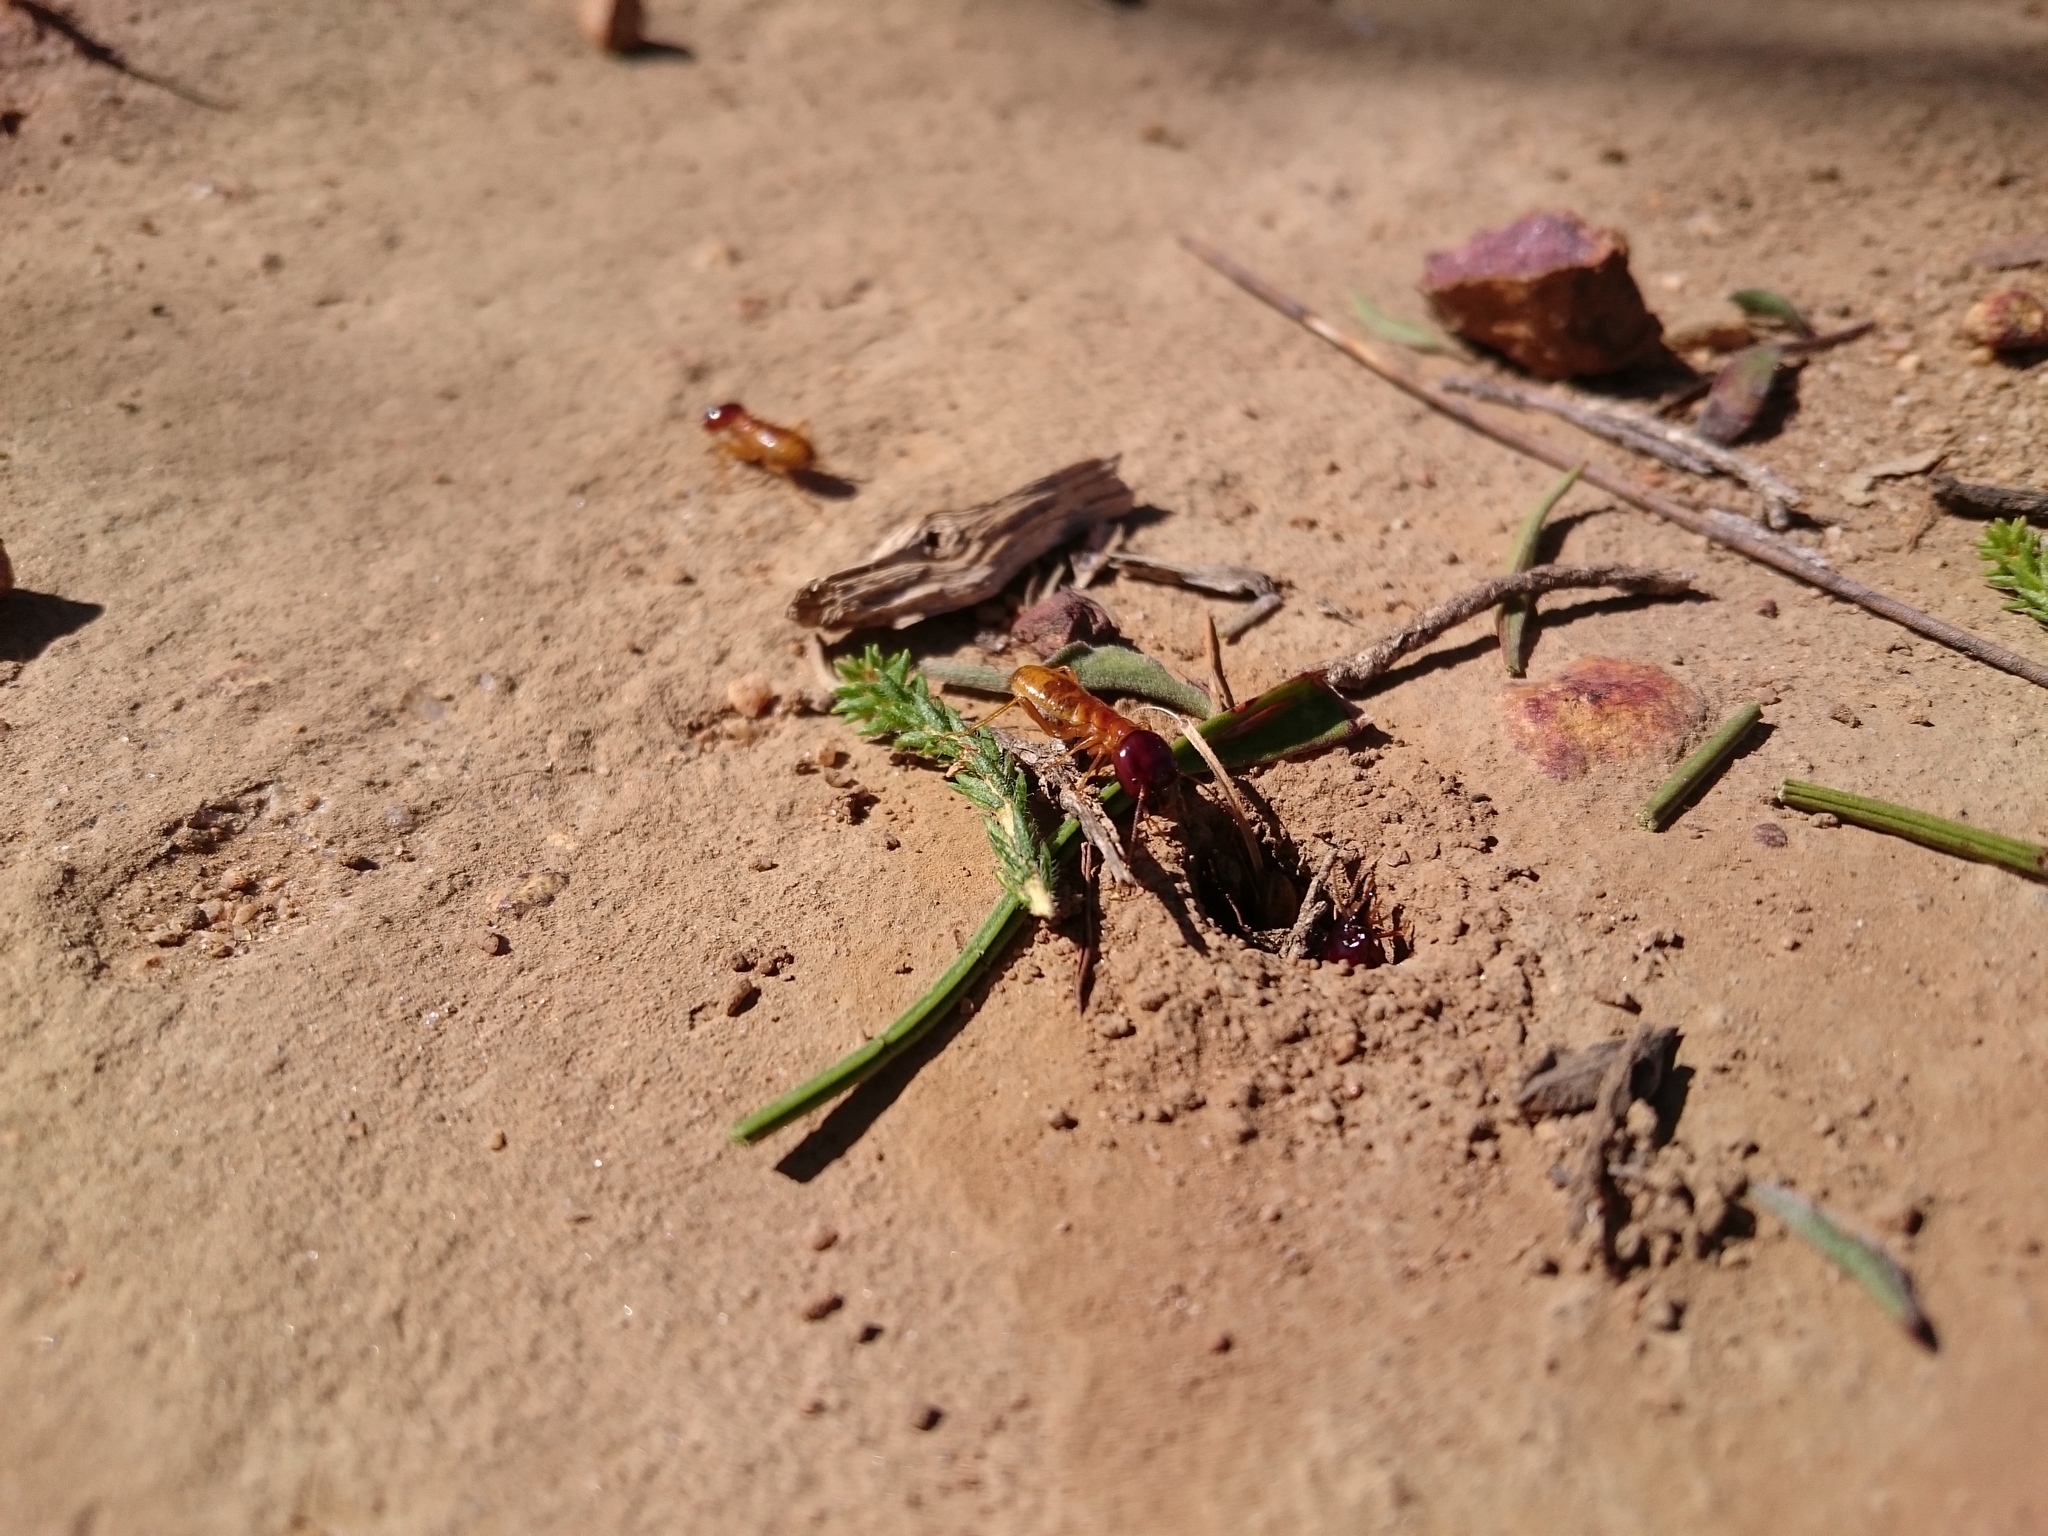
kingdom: Animalia
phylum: Arthropoda
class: Insecta
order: Blattodea
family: Hodotermitidae
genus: Microhodotermes
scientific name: Microhodotermes viator
